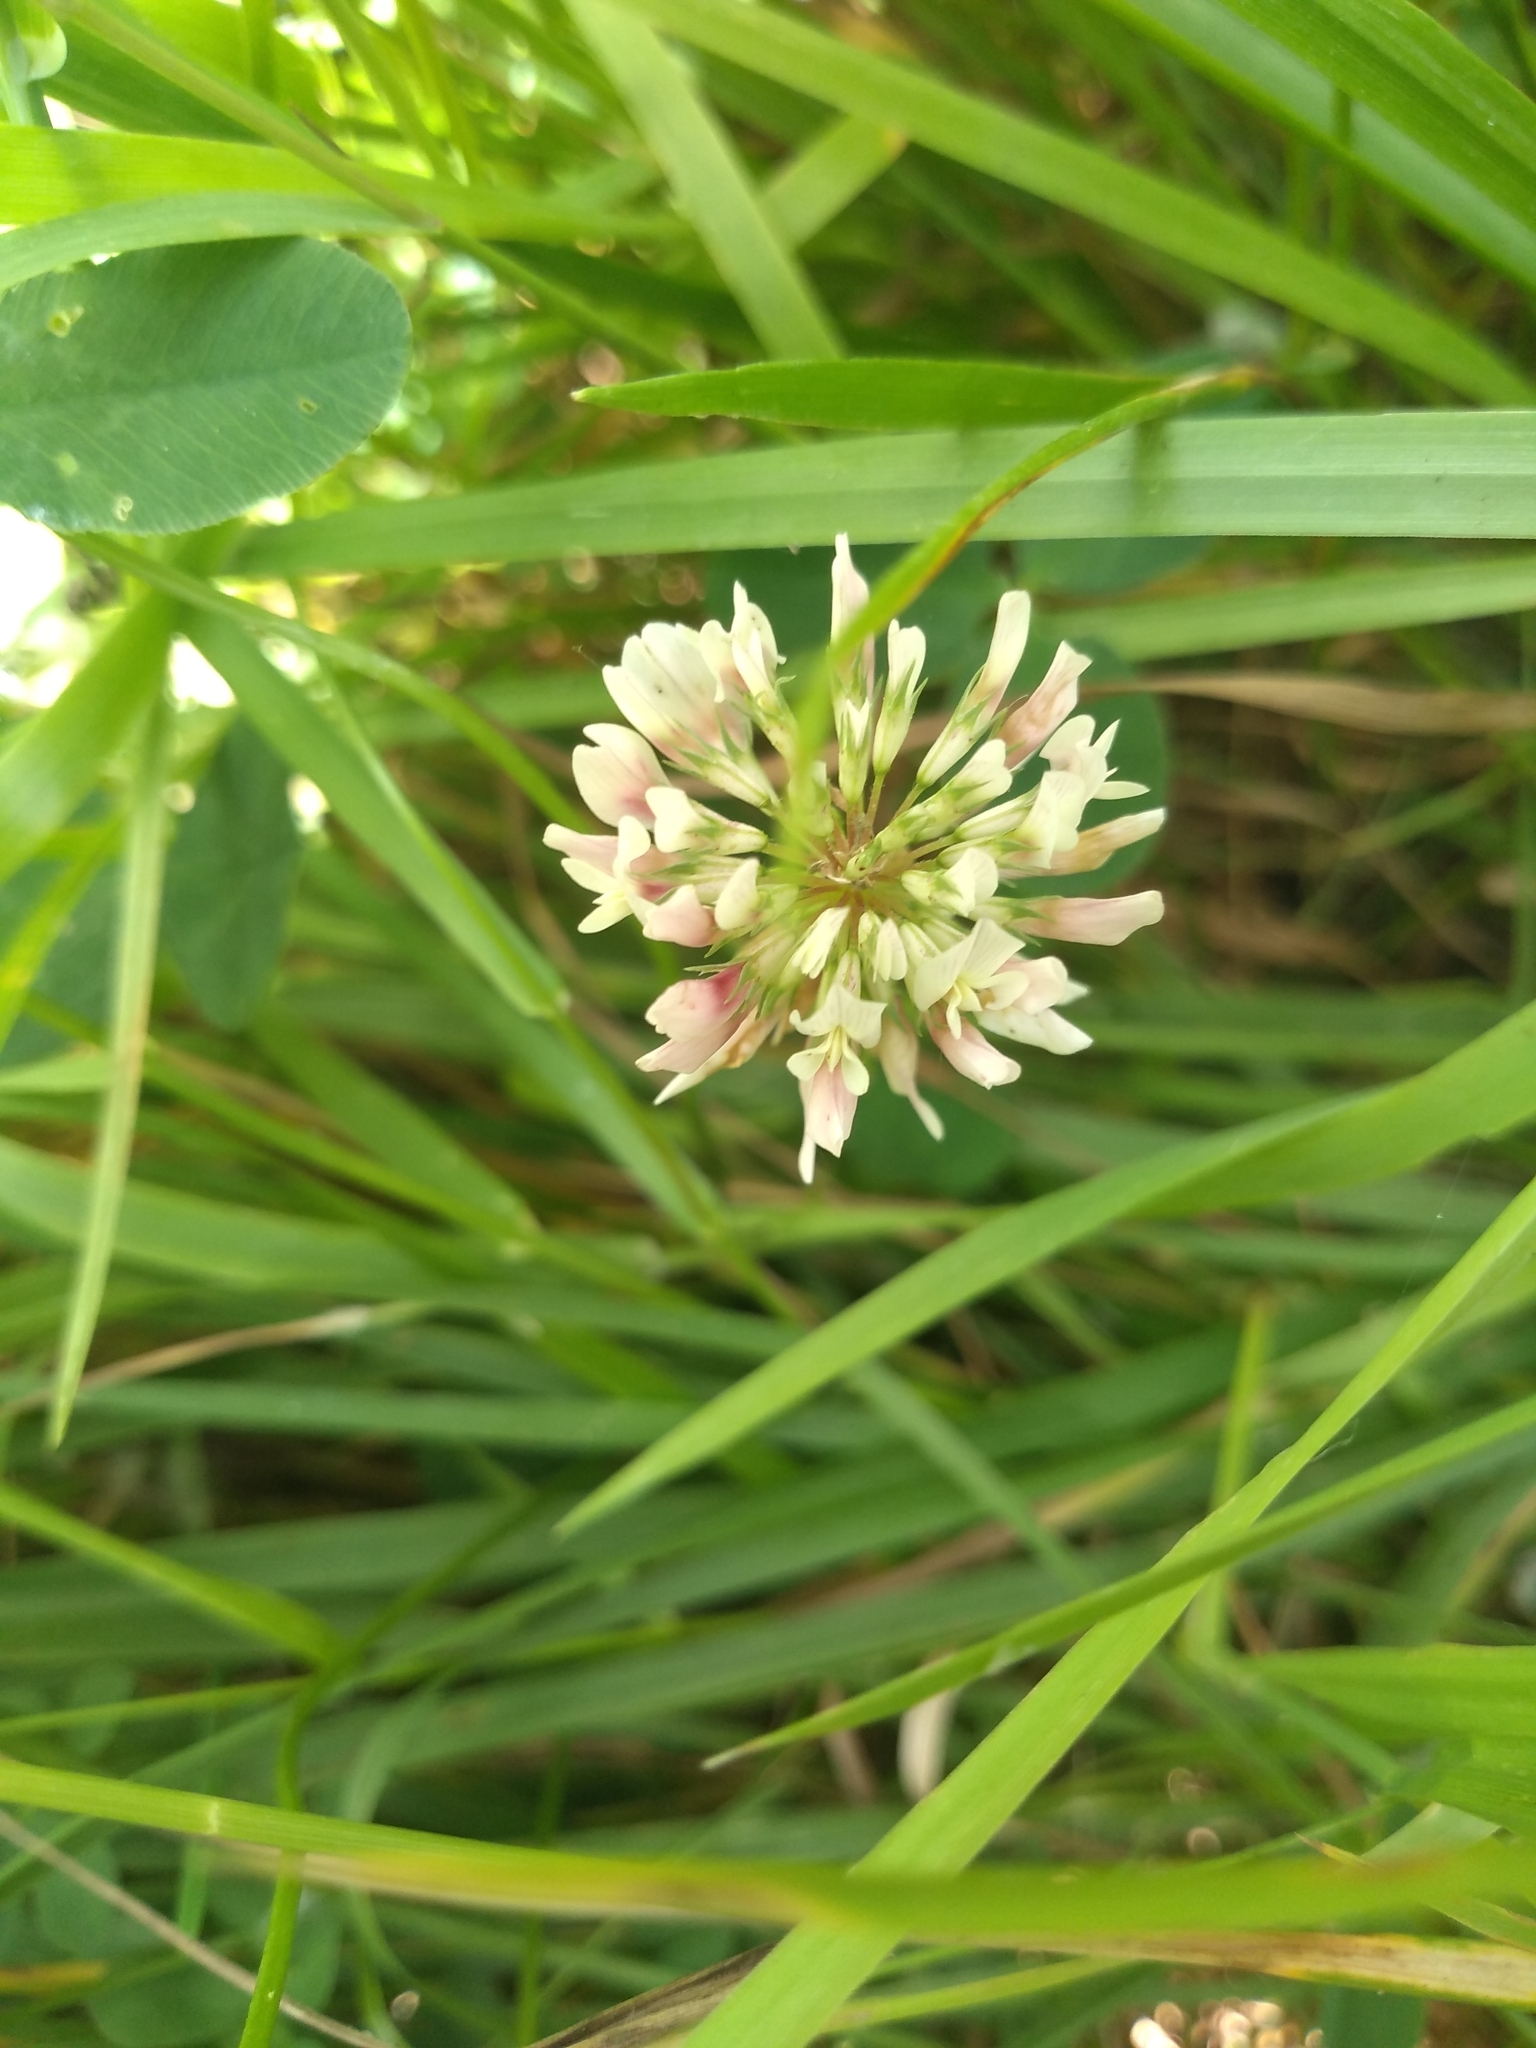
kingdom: Plantae
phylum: Tracheophyta
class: Magnoliopsida
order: Fabales
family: Fabaceae
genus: Trifolium
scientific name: Trifolium repens
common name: White clover
